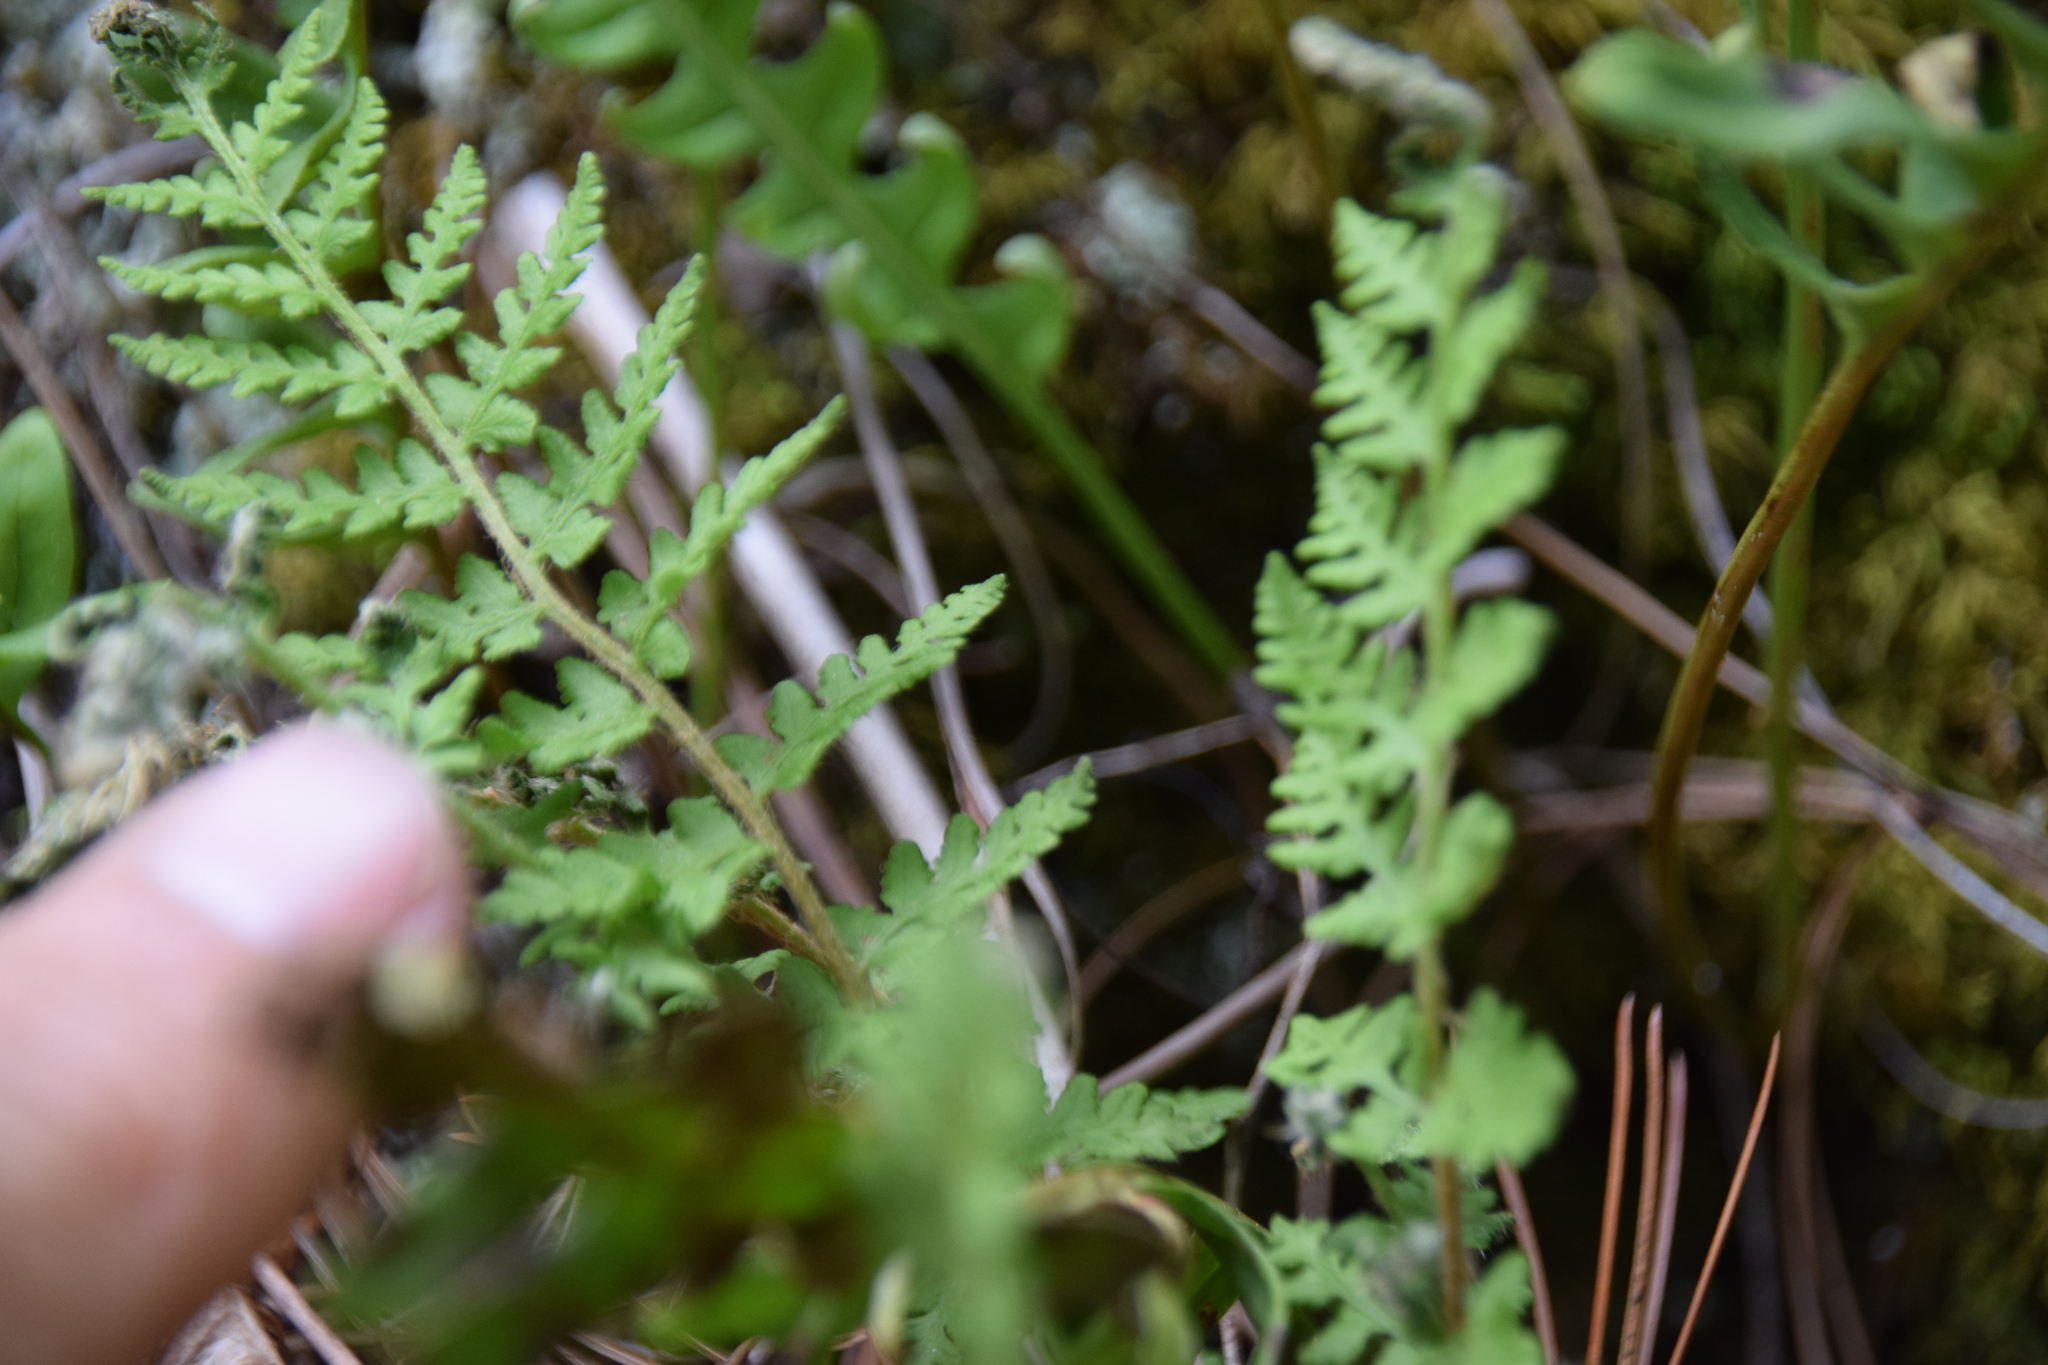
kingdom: Plantae
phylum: Tracheophyta
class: Polypodiopsida
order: Polypodiales
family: Woodsiaceae
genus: Woodsia
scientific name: Woodsia ilvensis
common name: Fragrant woodsia
